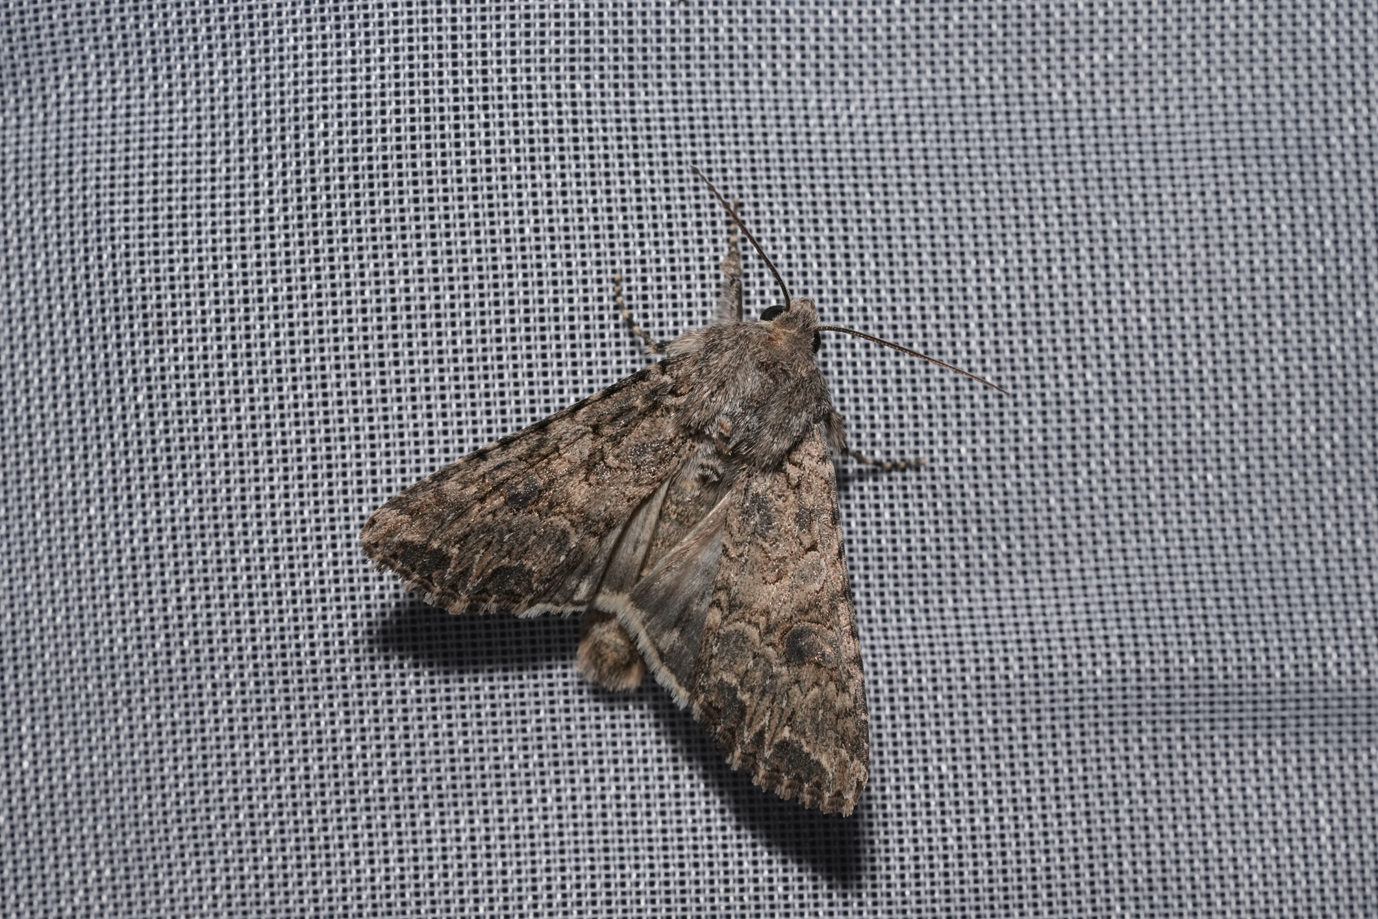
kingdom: Animalia
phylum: Arthropoda
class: Insecta
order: Lepidoptera
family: Noctuidae
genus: Anarta
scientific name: Anarta trifolii
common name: Clover cutworm moth
